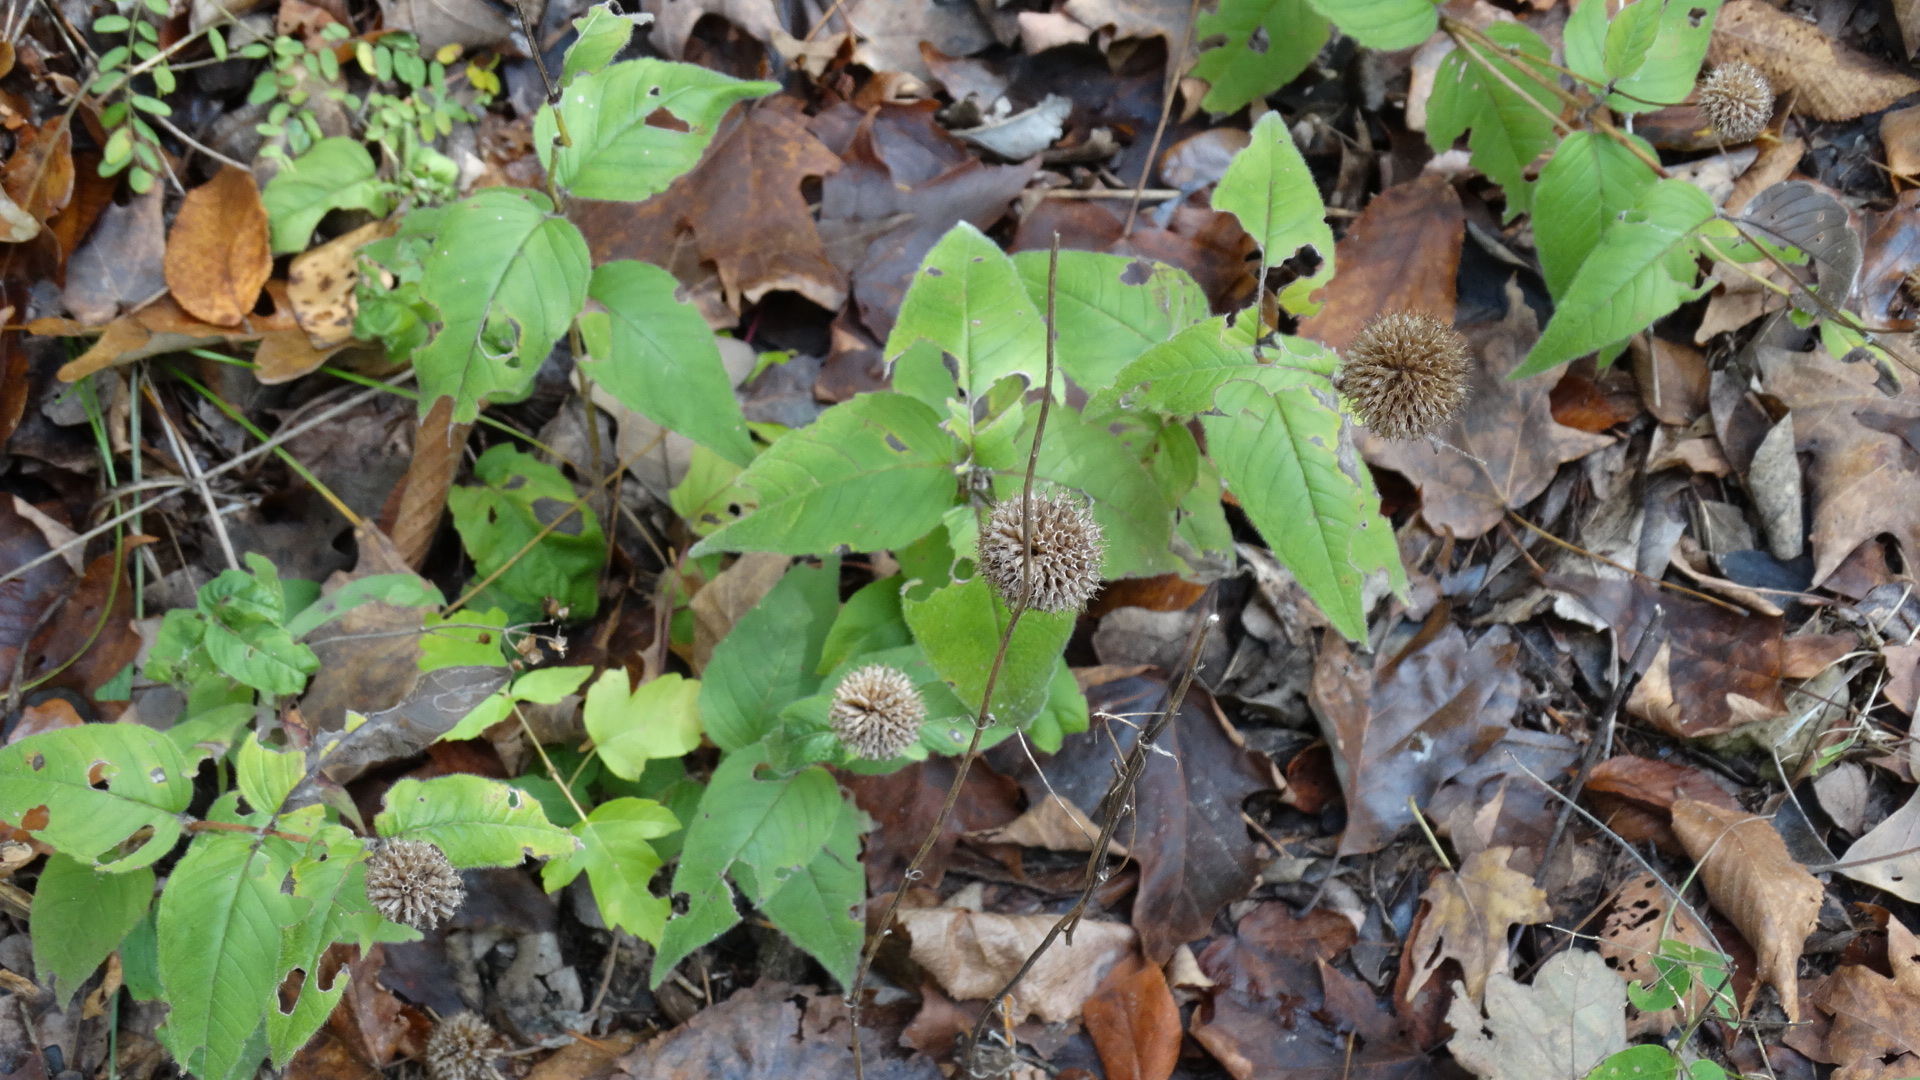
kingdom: Plantae
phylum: Tracheophyta
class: Magnoliopsida
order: Lamiales
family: Lamiaceae
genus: Monarda
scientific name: Monarda bradburiana
